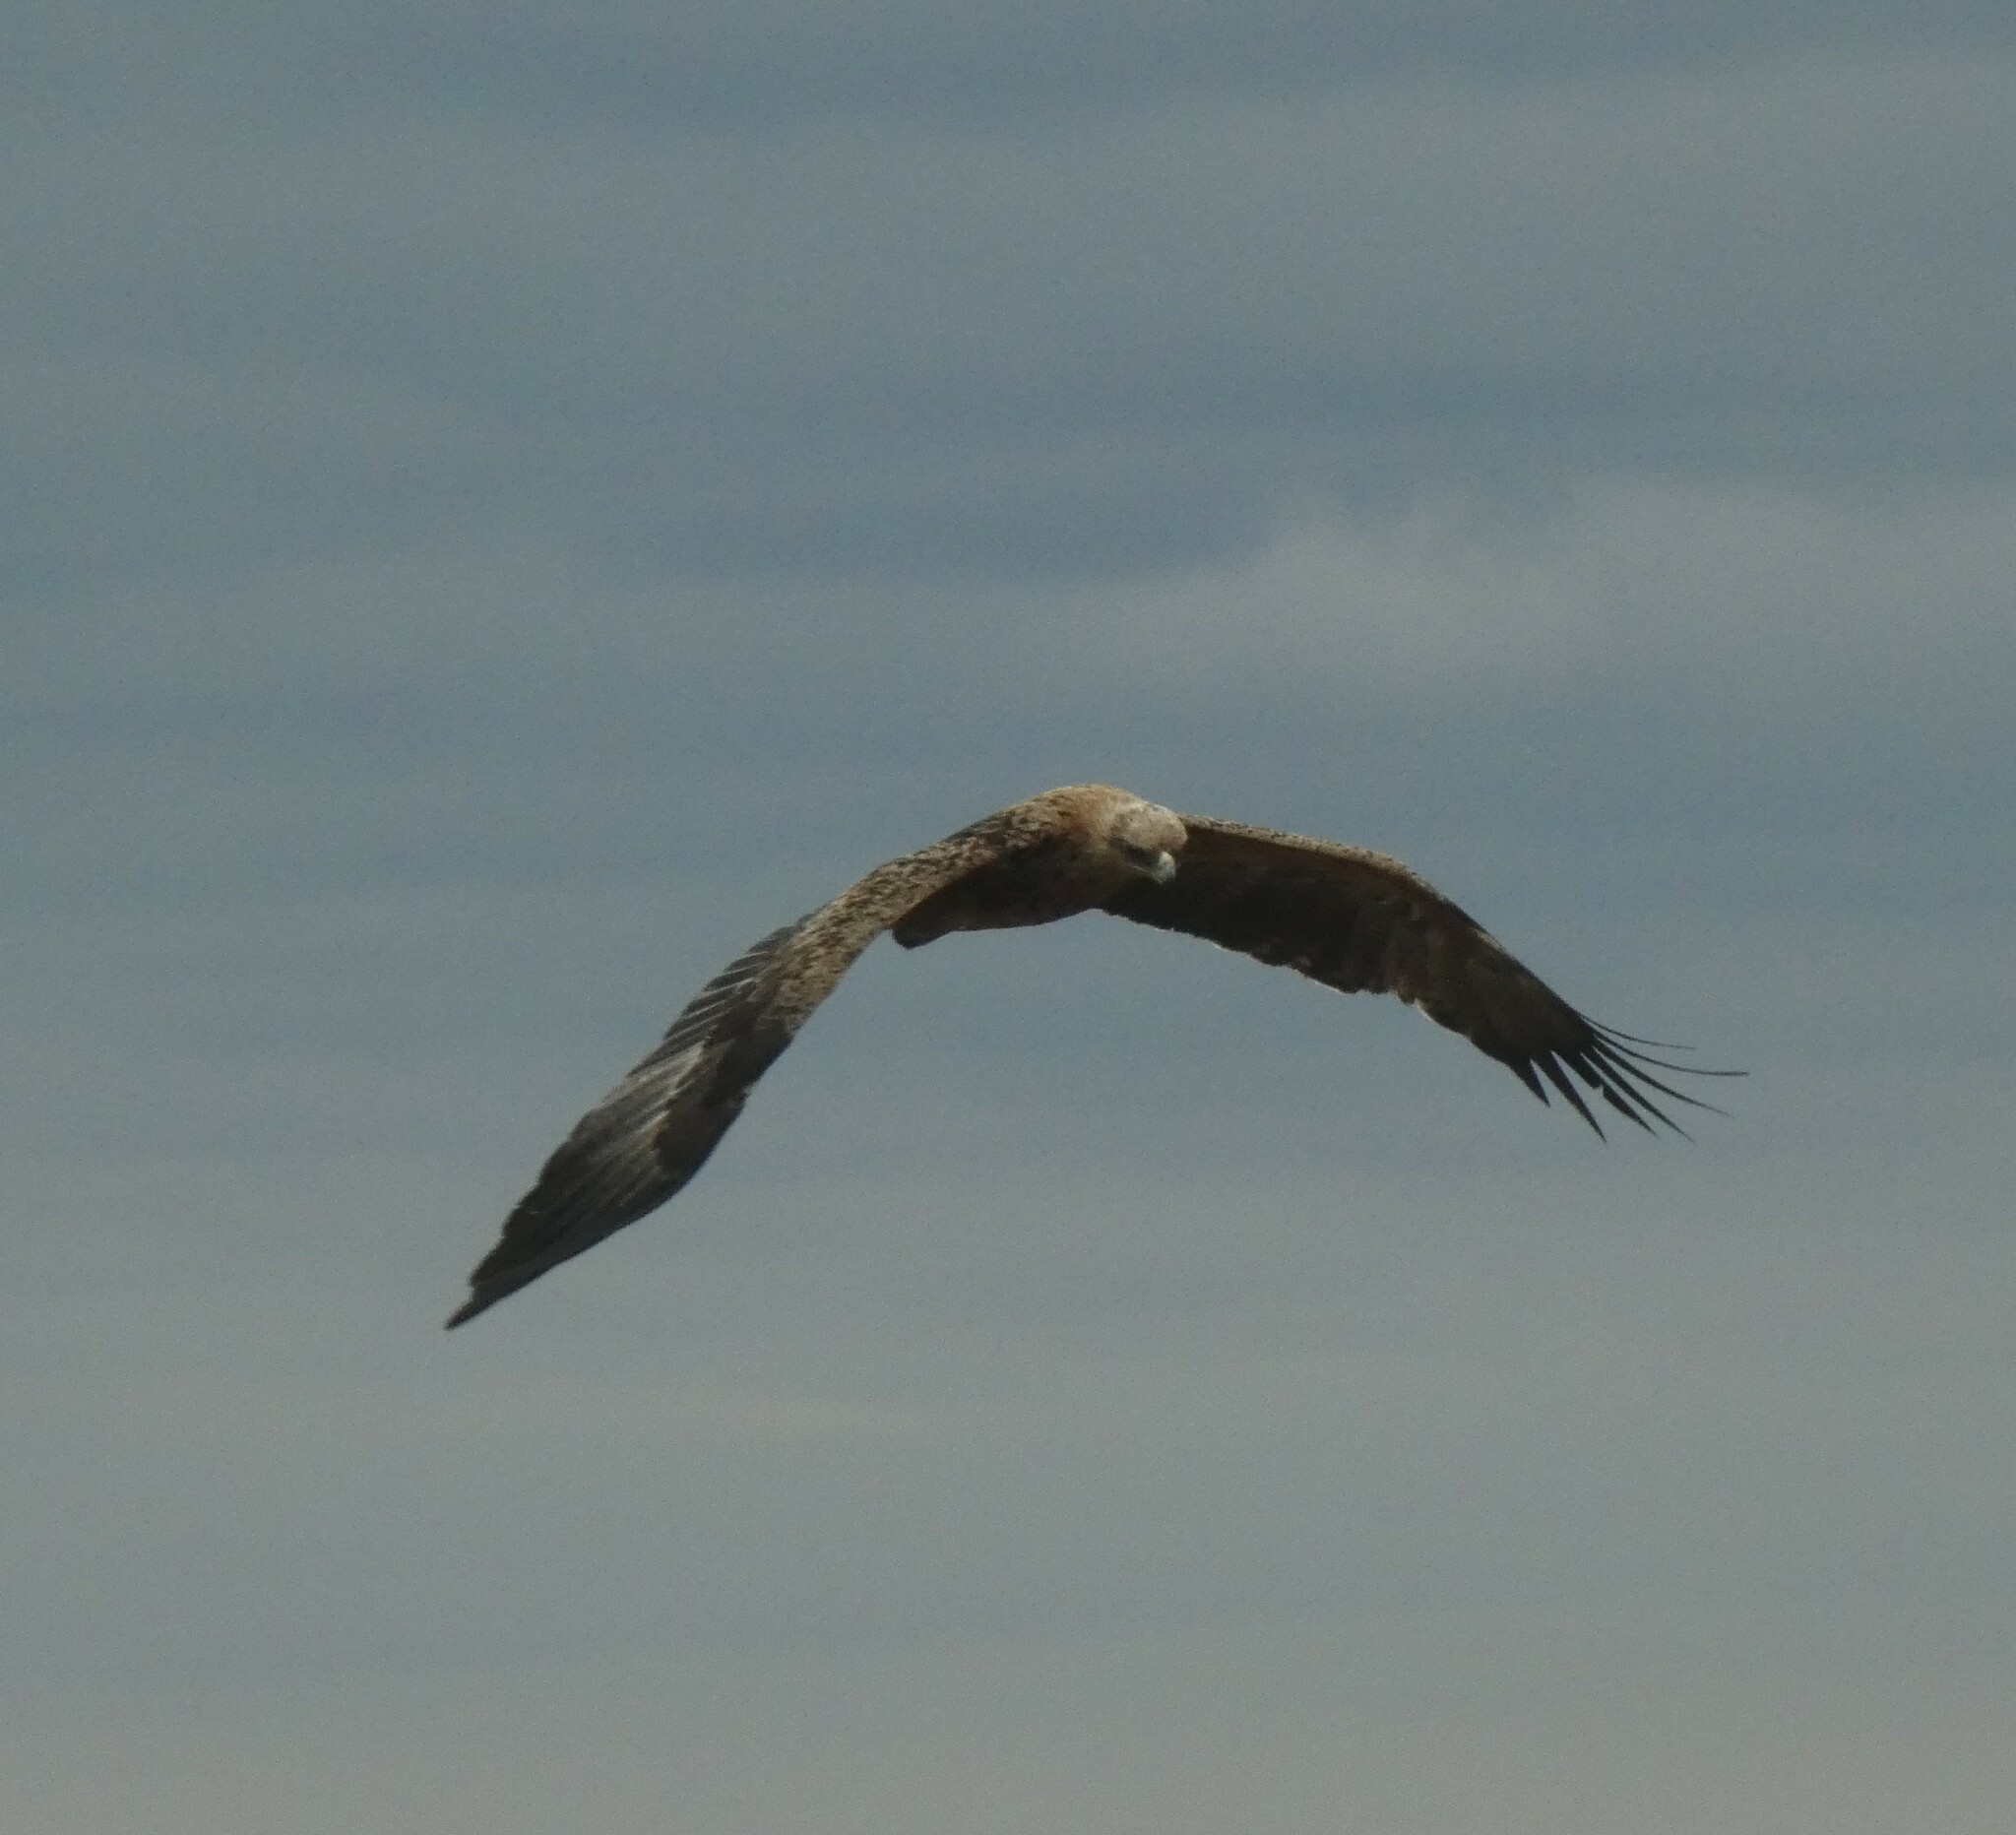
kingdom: Animalia
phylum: Chordata
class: Aves
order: Accipitriformes
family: Accipitridae
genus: Aquila
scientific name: Aquila rapax
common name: Tawny eagle
